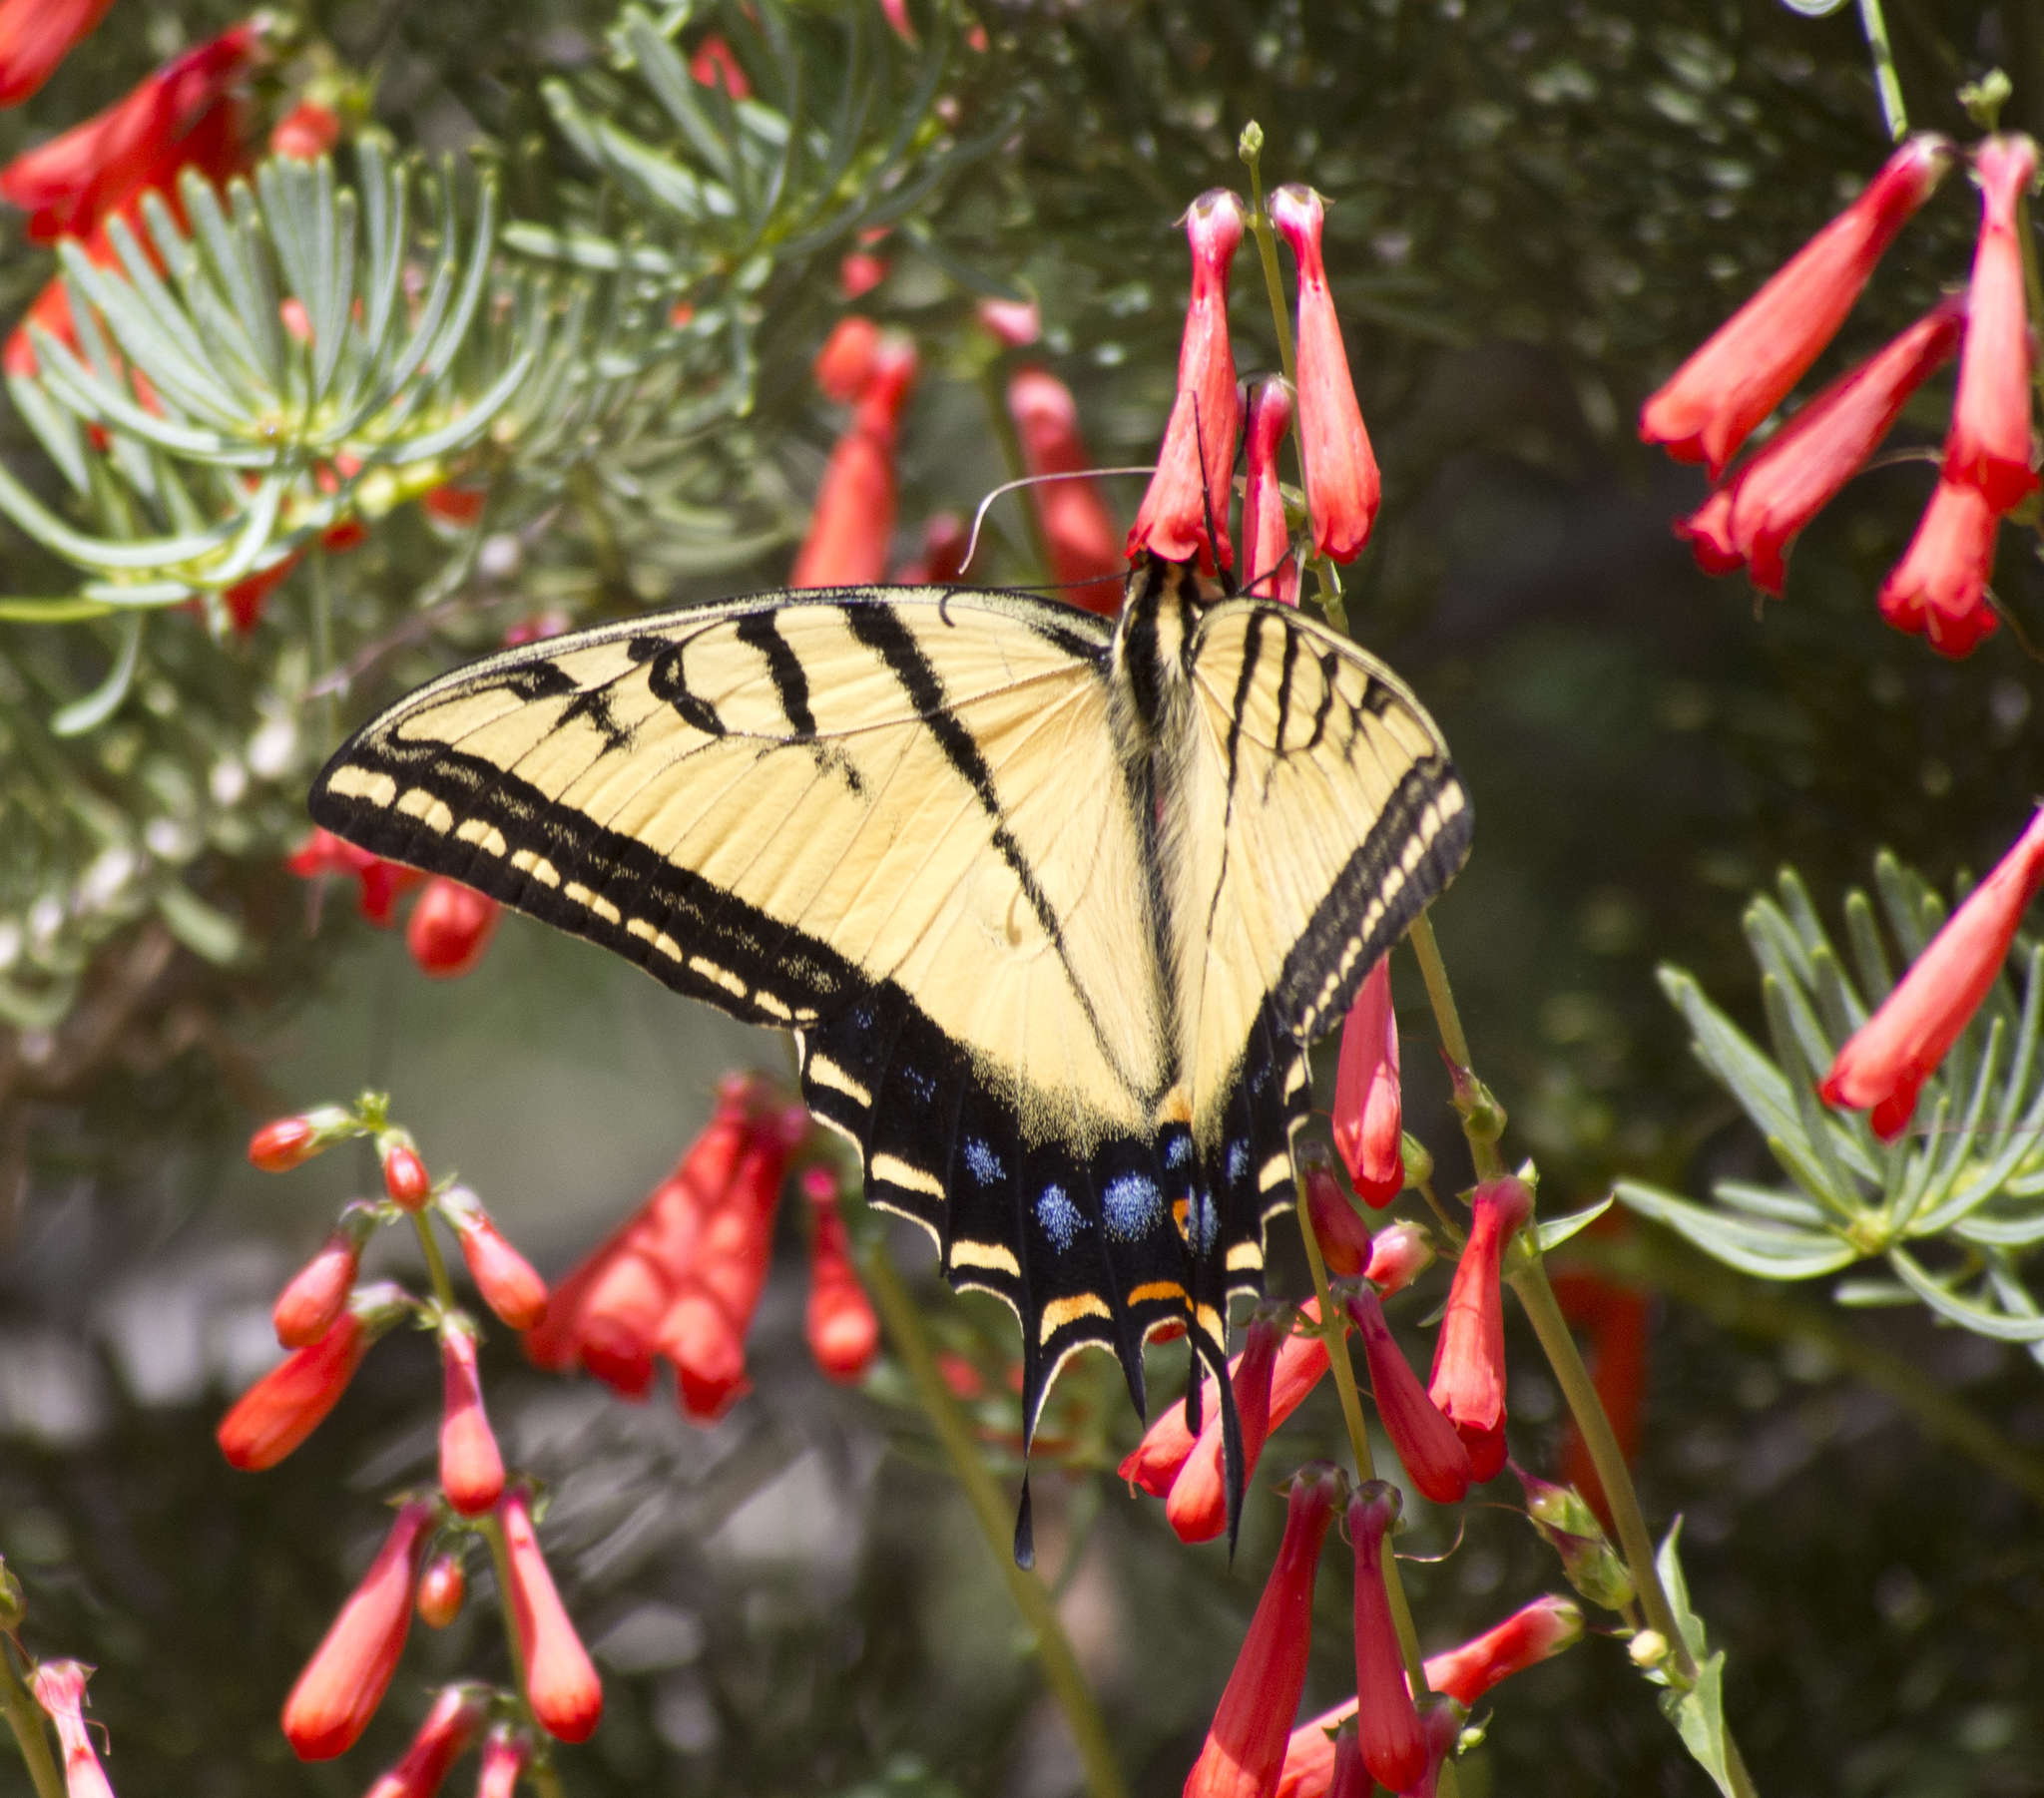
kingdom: Animalia
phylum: Arthropoda
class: Insecta
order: Lepidoptera
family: Papilionidae
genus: Papilio
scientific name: Papilio multicaudata
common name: Two-tailed tiger swallowtail
